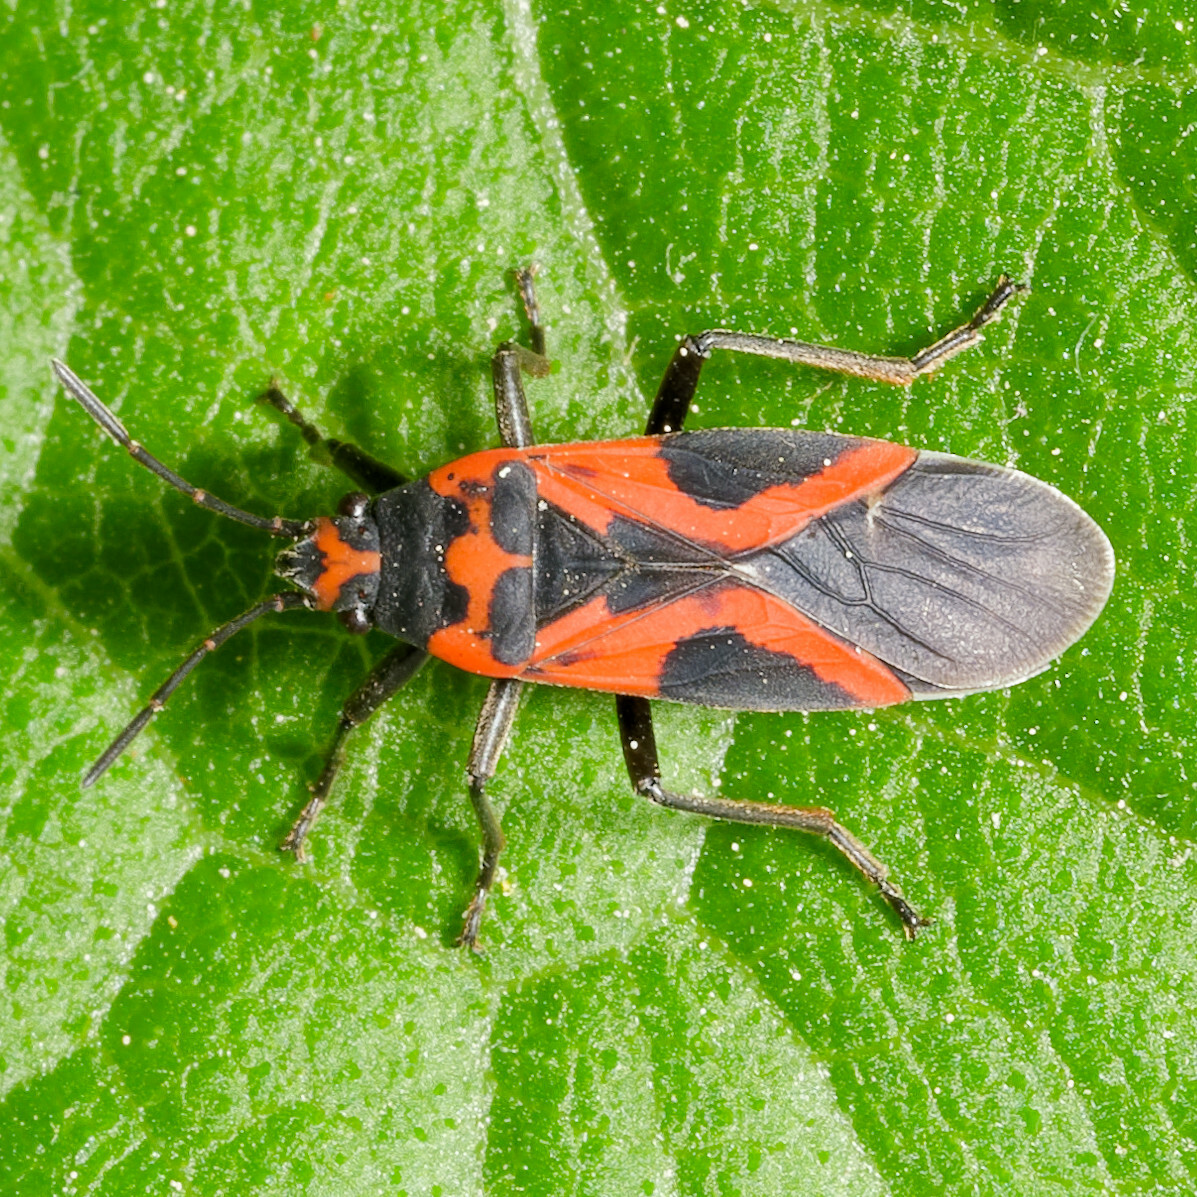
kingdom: Animalia
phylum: Arthropoda
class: Insecta
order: Hemiptera
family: Lygaeidae
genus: Lygaeus
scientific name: Lygaeus turcicus
